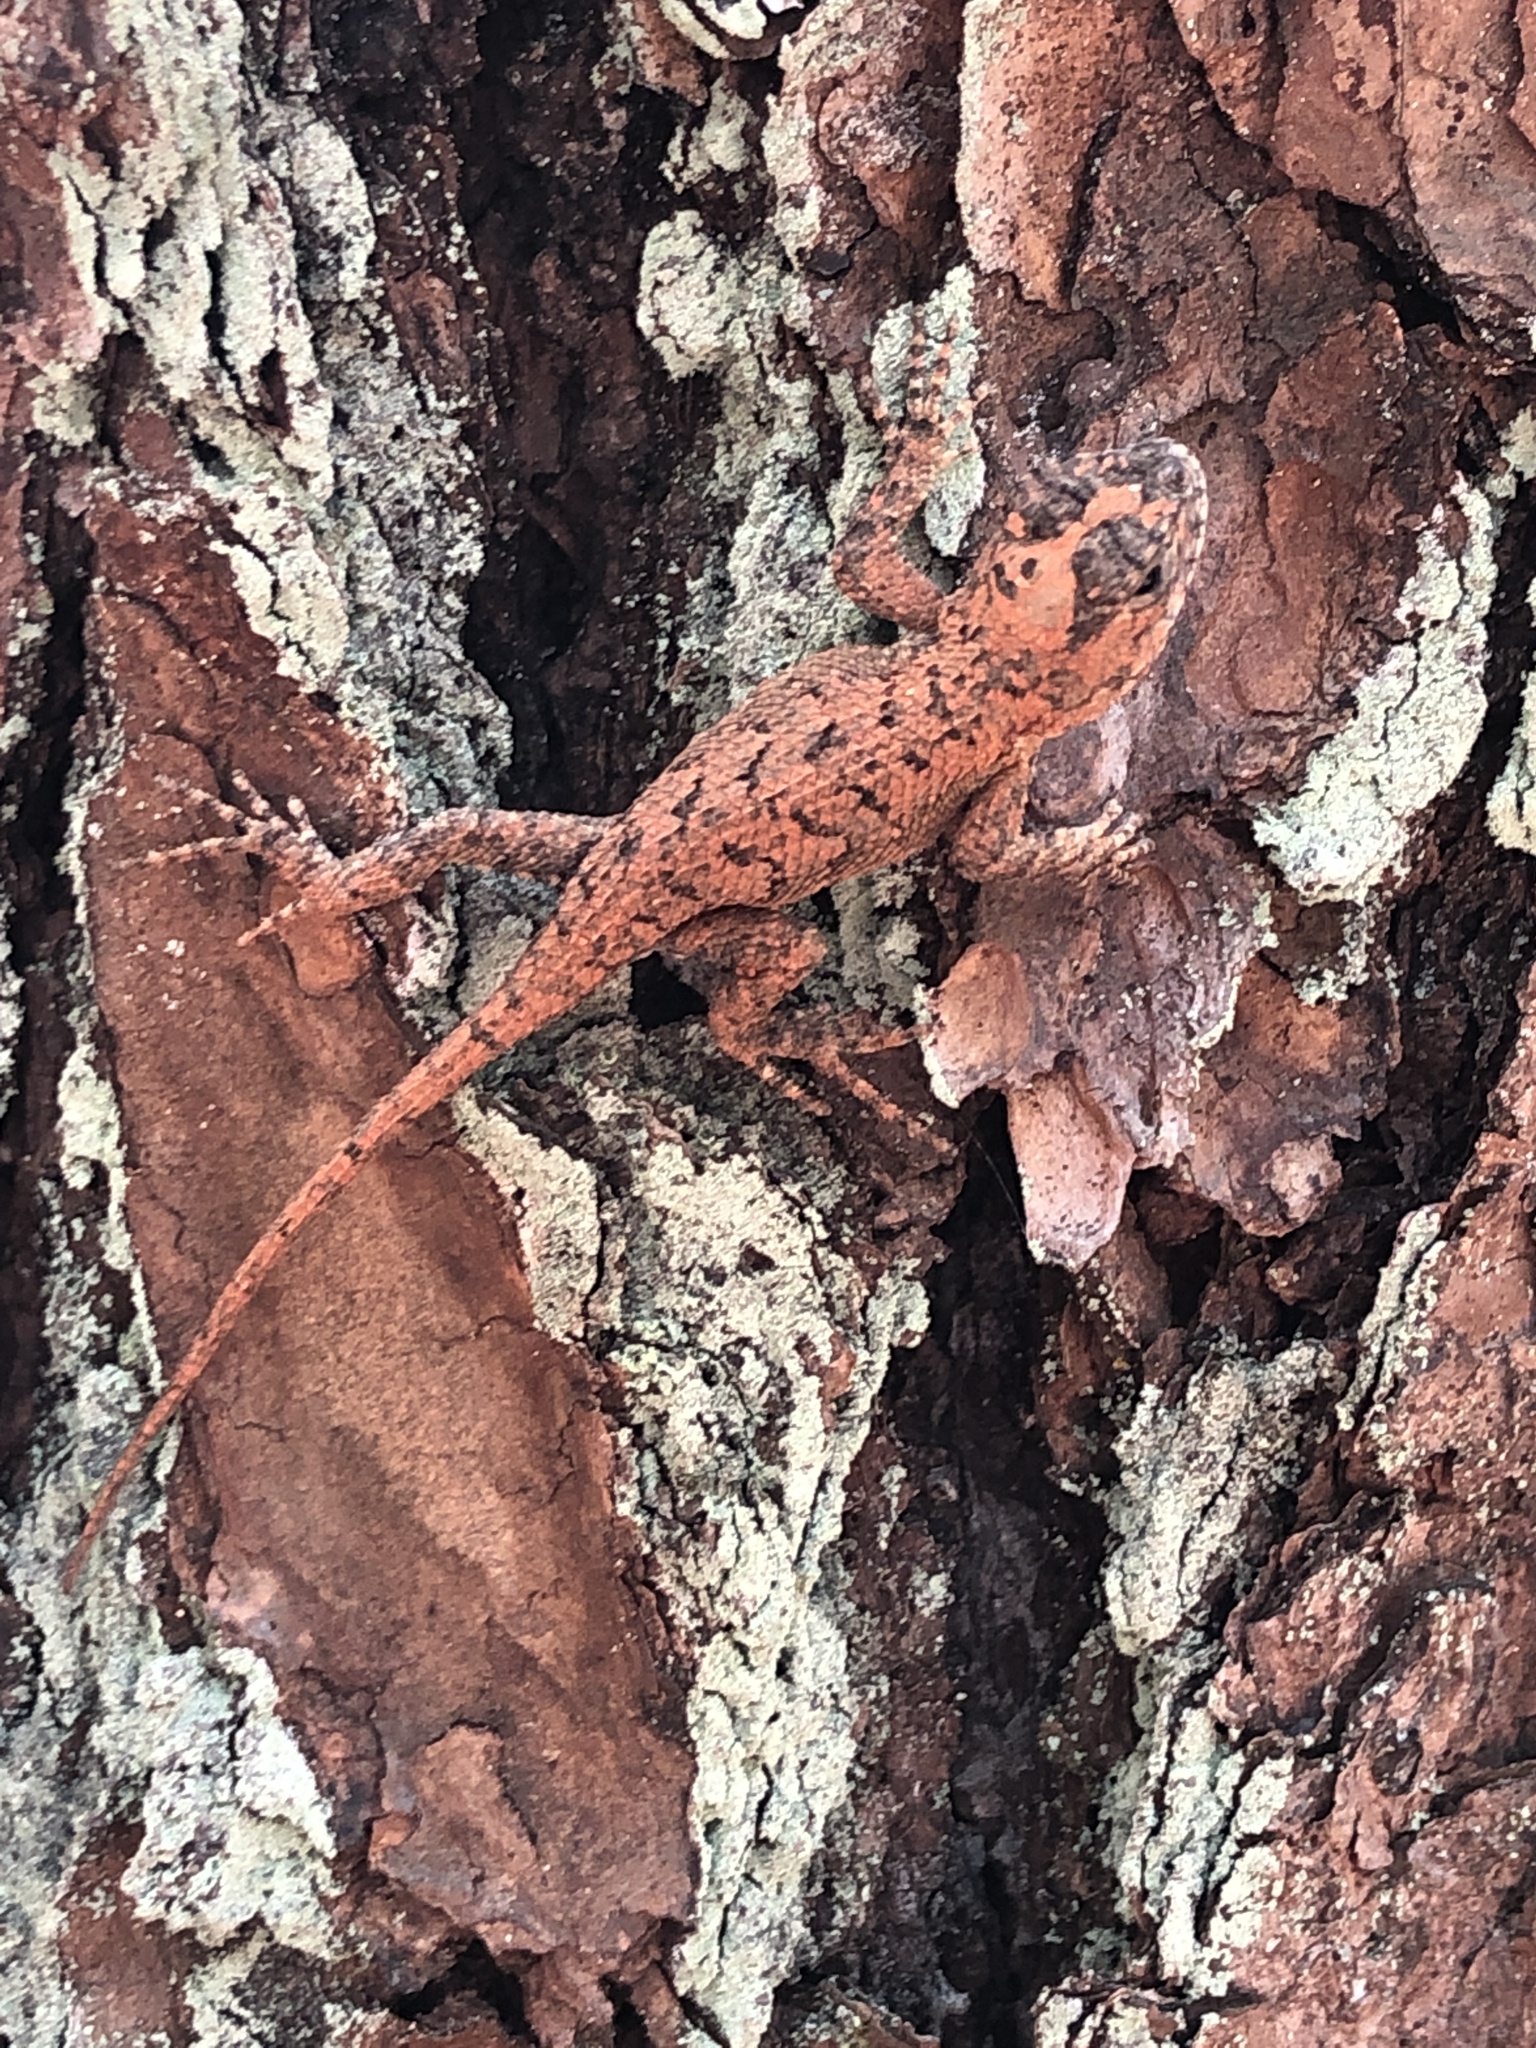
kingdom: Animalia
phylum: Chordata
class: Squamata
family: Phrynosomatidae
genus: Sceloporus
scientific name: Sceloporus undulatus
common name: Eastern fence lizard
